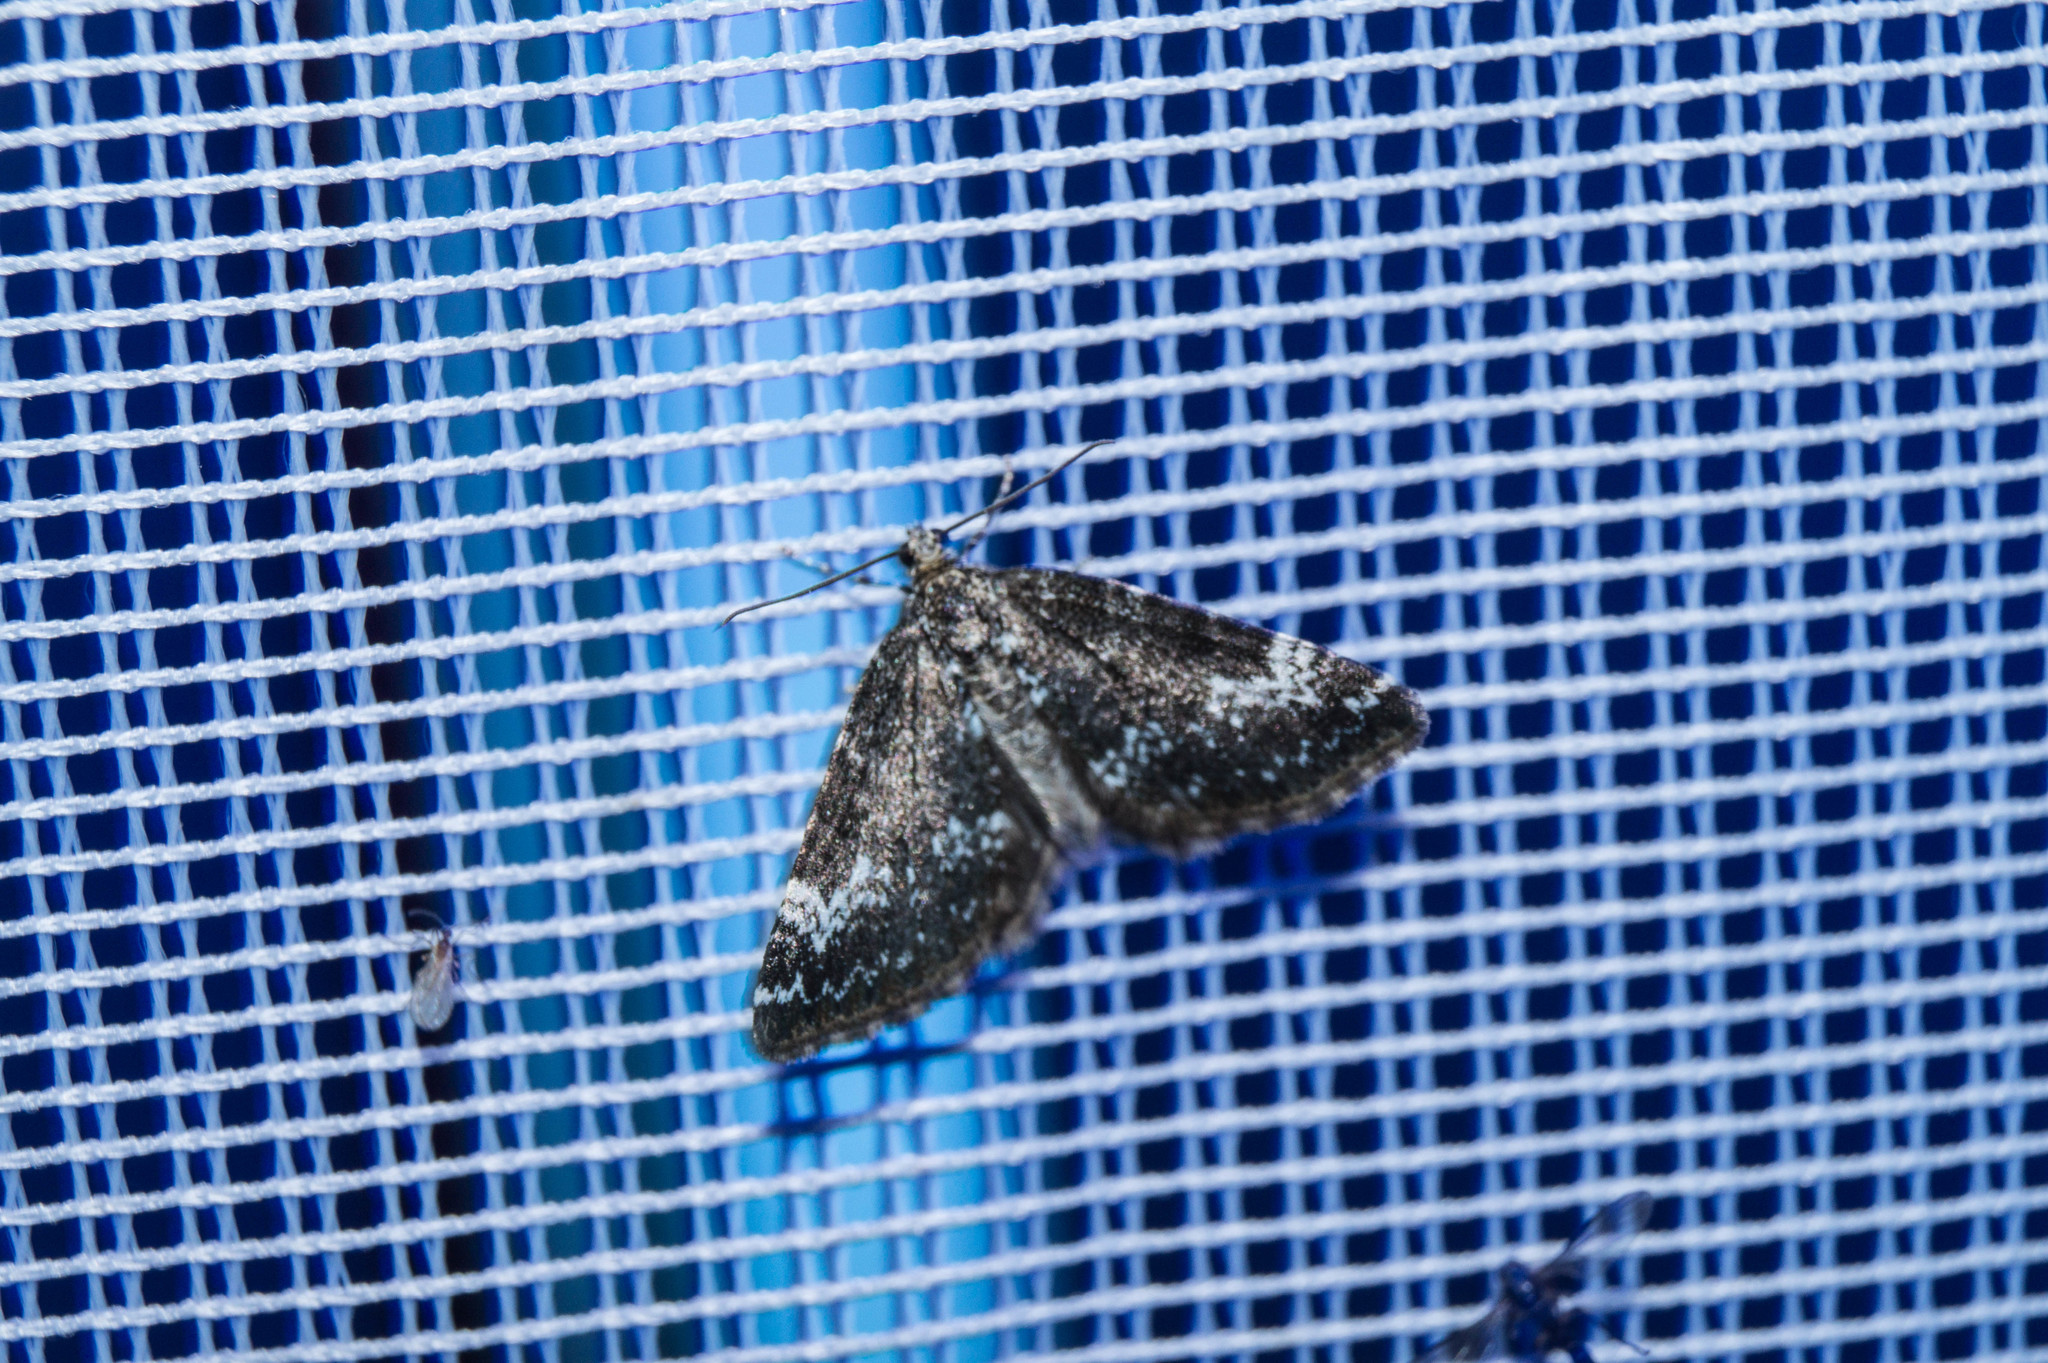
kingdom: Animalia
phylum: Arthropoda
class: Insecta
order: Lepidoptera
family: Geometridae
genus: Perizoma
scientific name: Perizoma alchemillata
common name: Small rivulet
